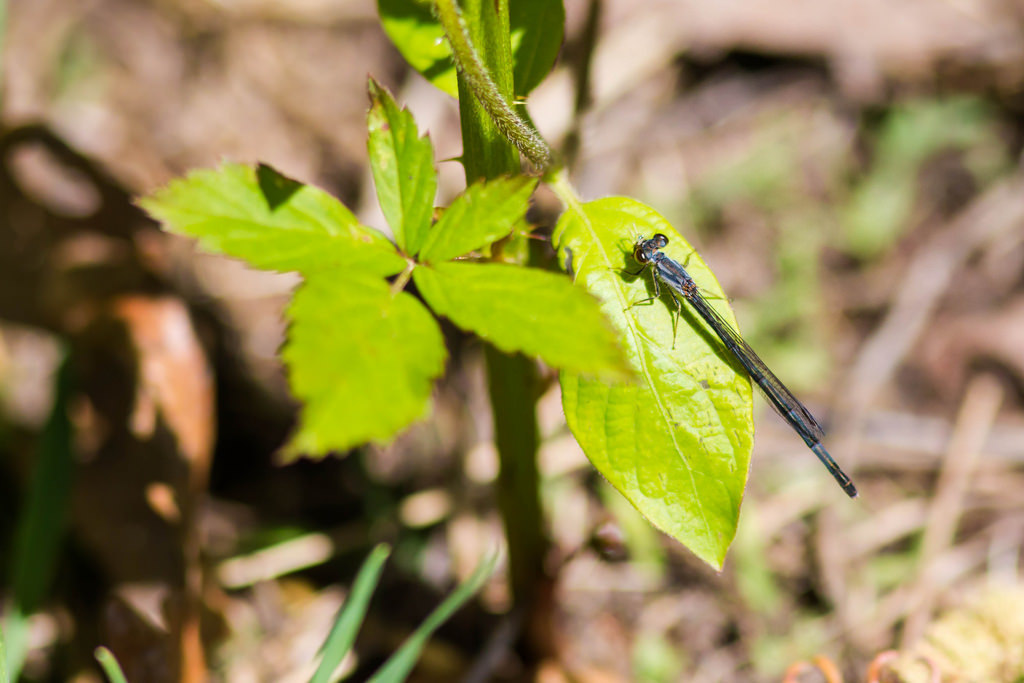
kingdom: Animalia
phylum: Arthropoda
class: Insecta
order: Odonata
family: Coenagrionidae
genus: Ischnura
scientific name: Ischnura posita
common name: Fragile forktail
